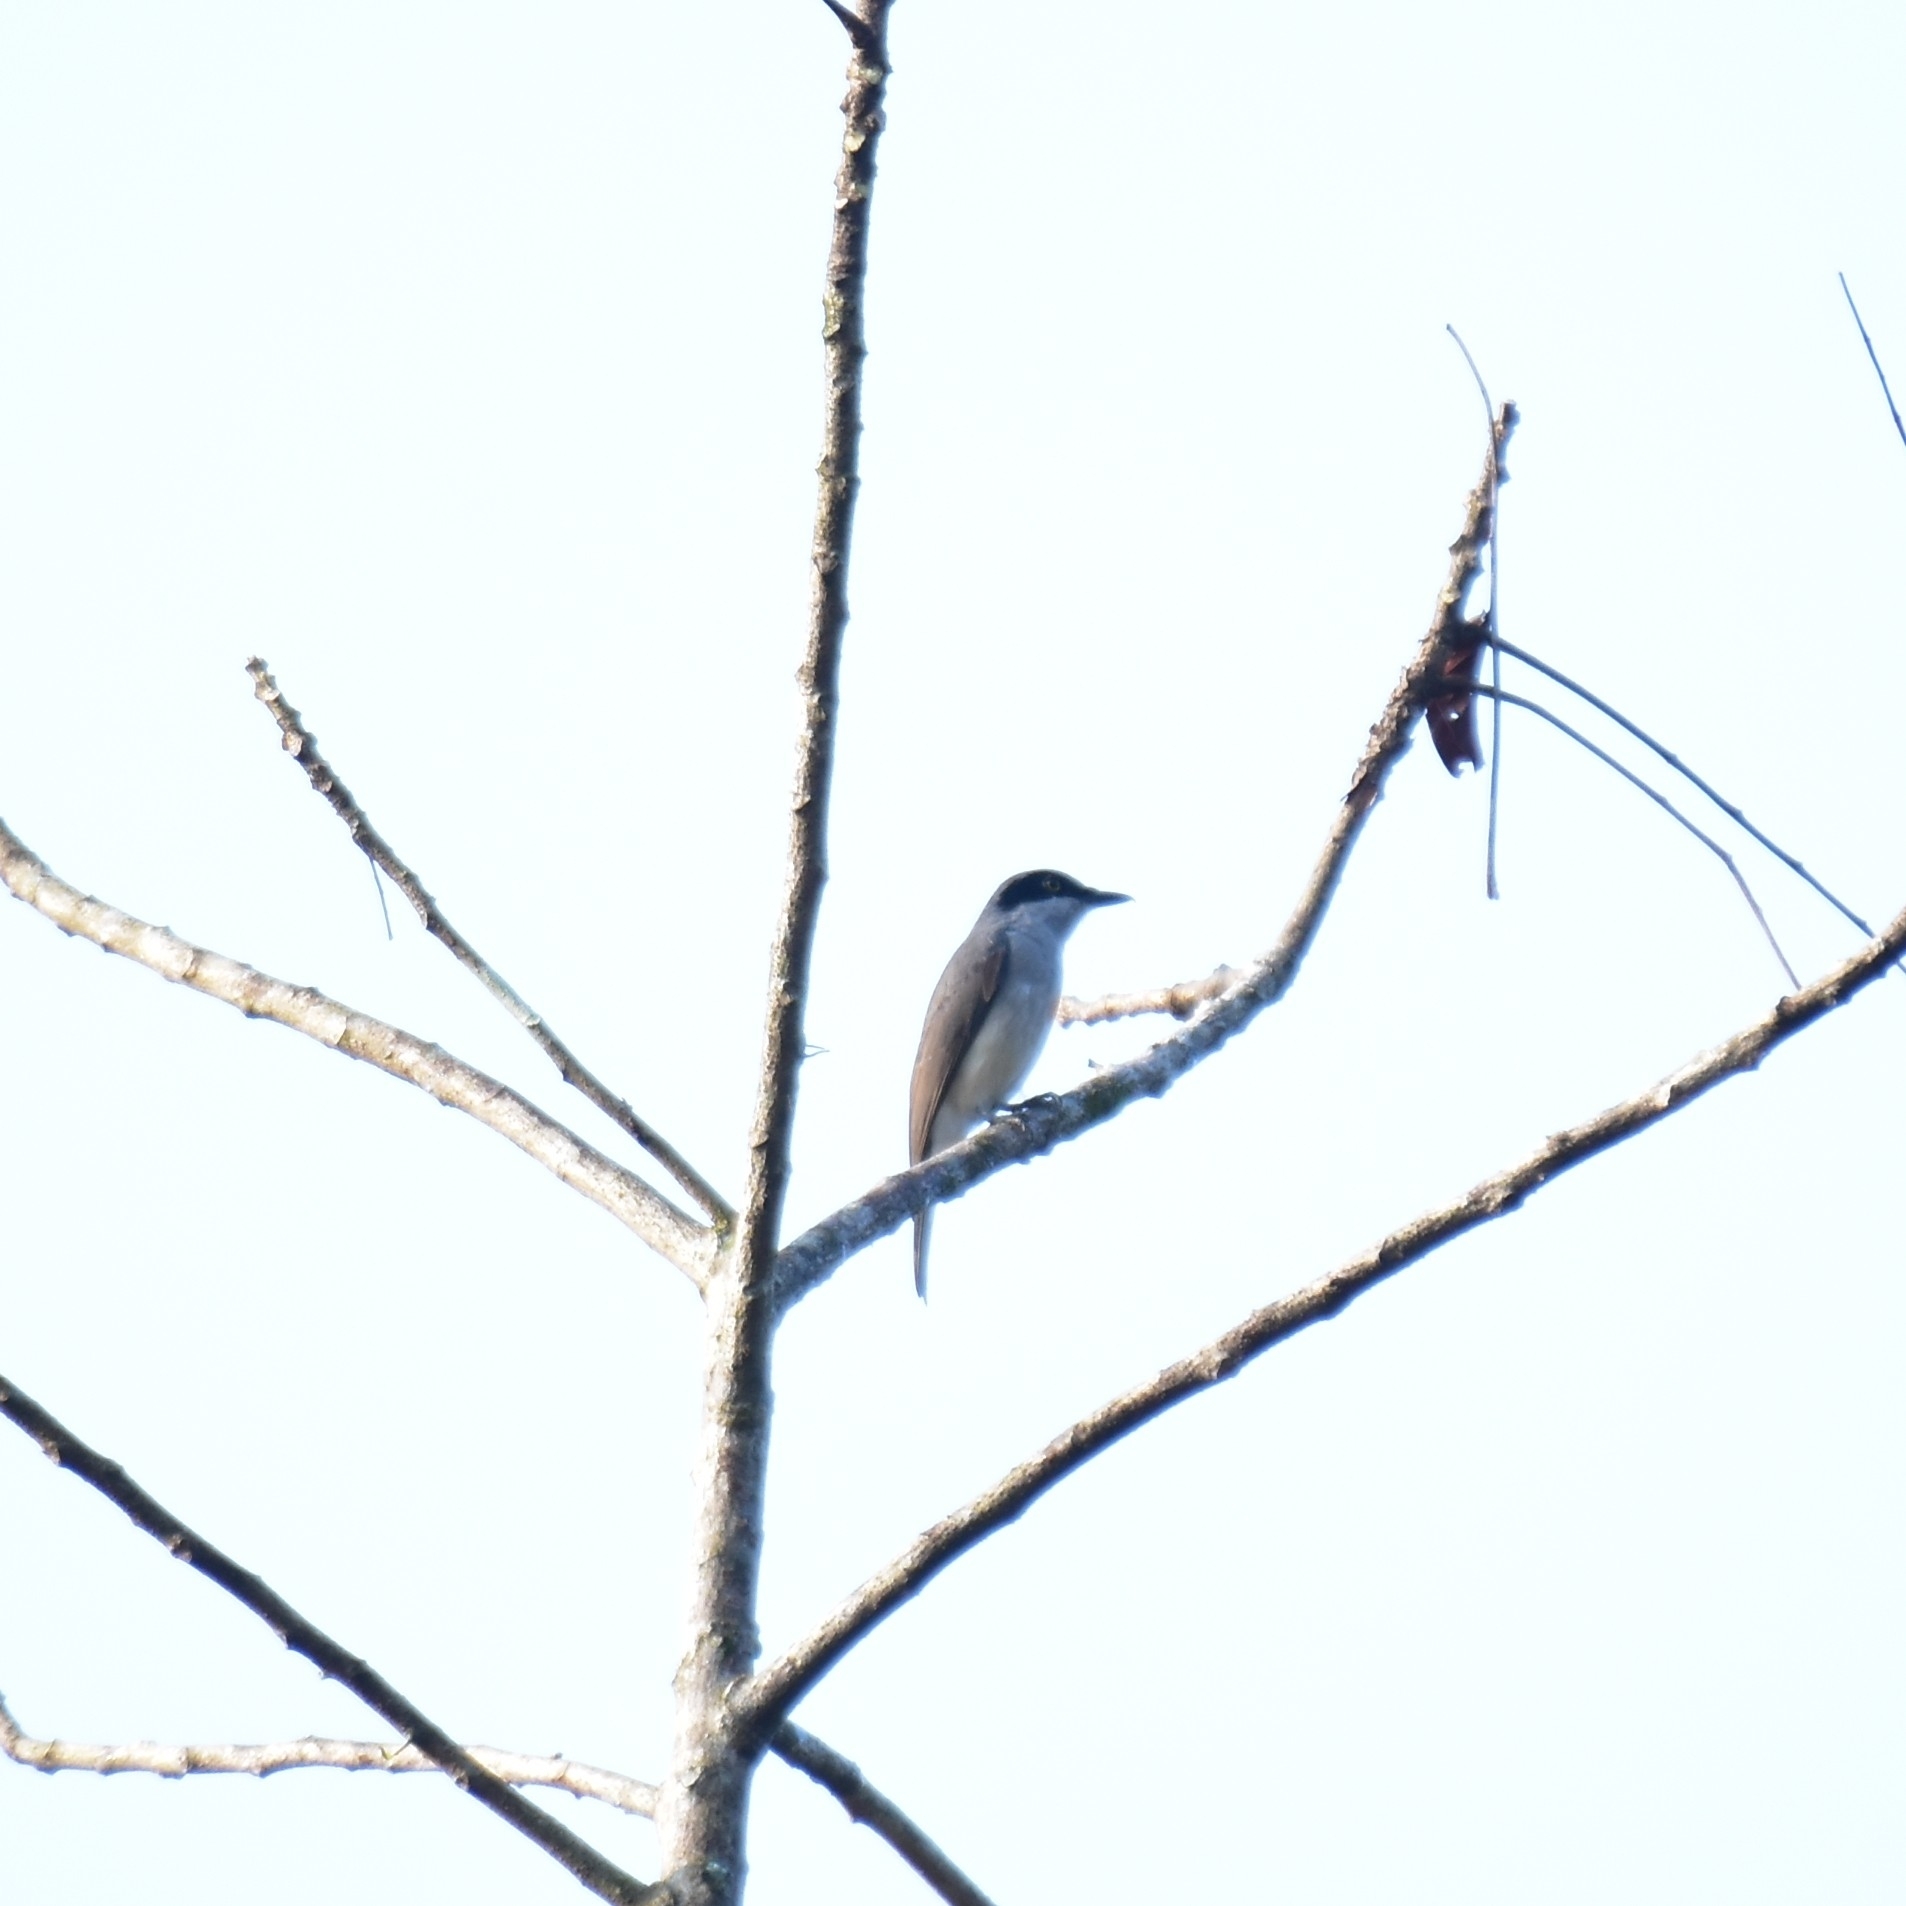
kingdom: Animalia
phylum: Chordata
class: Aves
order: Passeriformes
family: Tephrodornithidae
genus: Tephrodornis
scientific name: Tephrodornis sylvicola
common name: Malabar woodshrike
